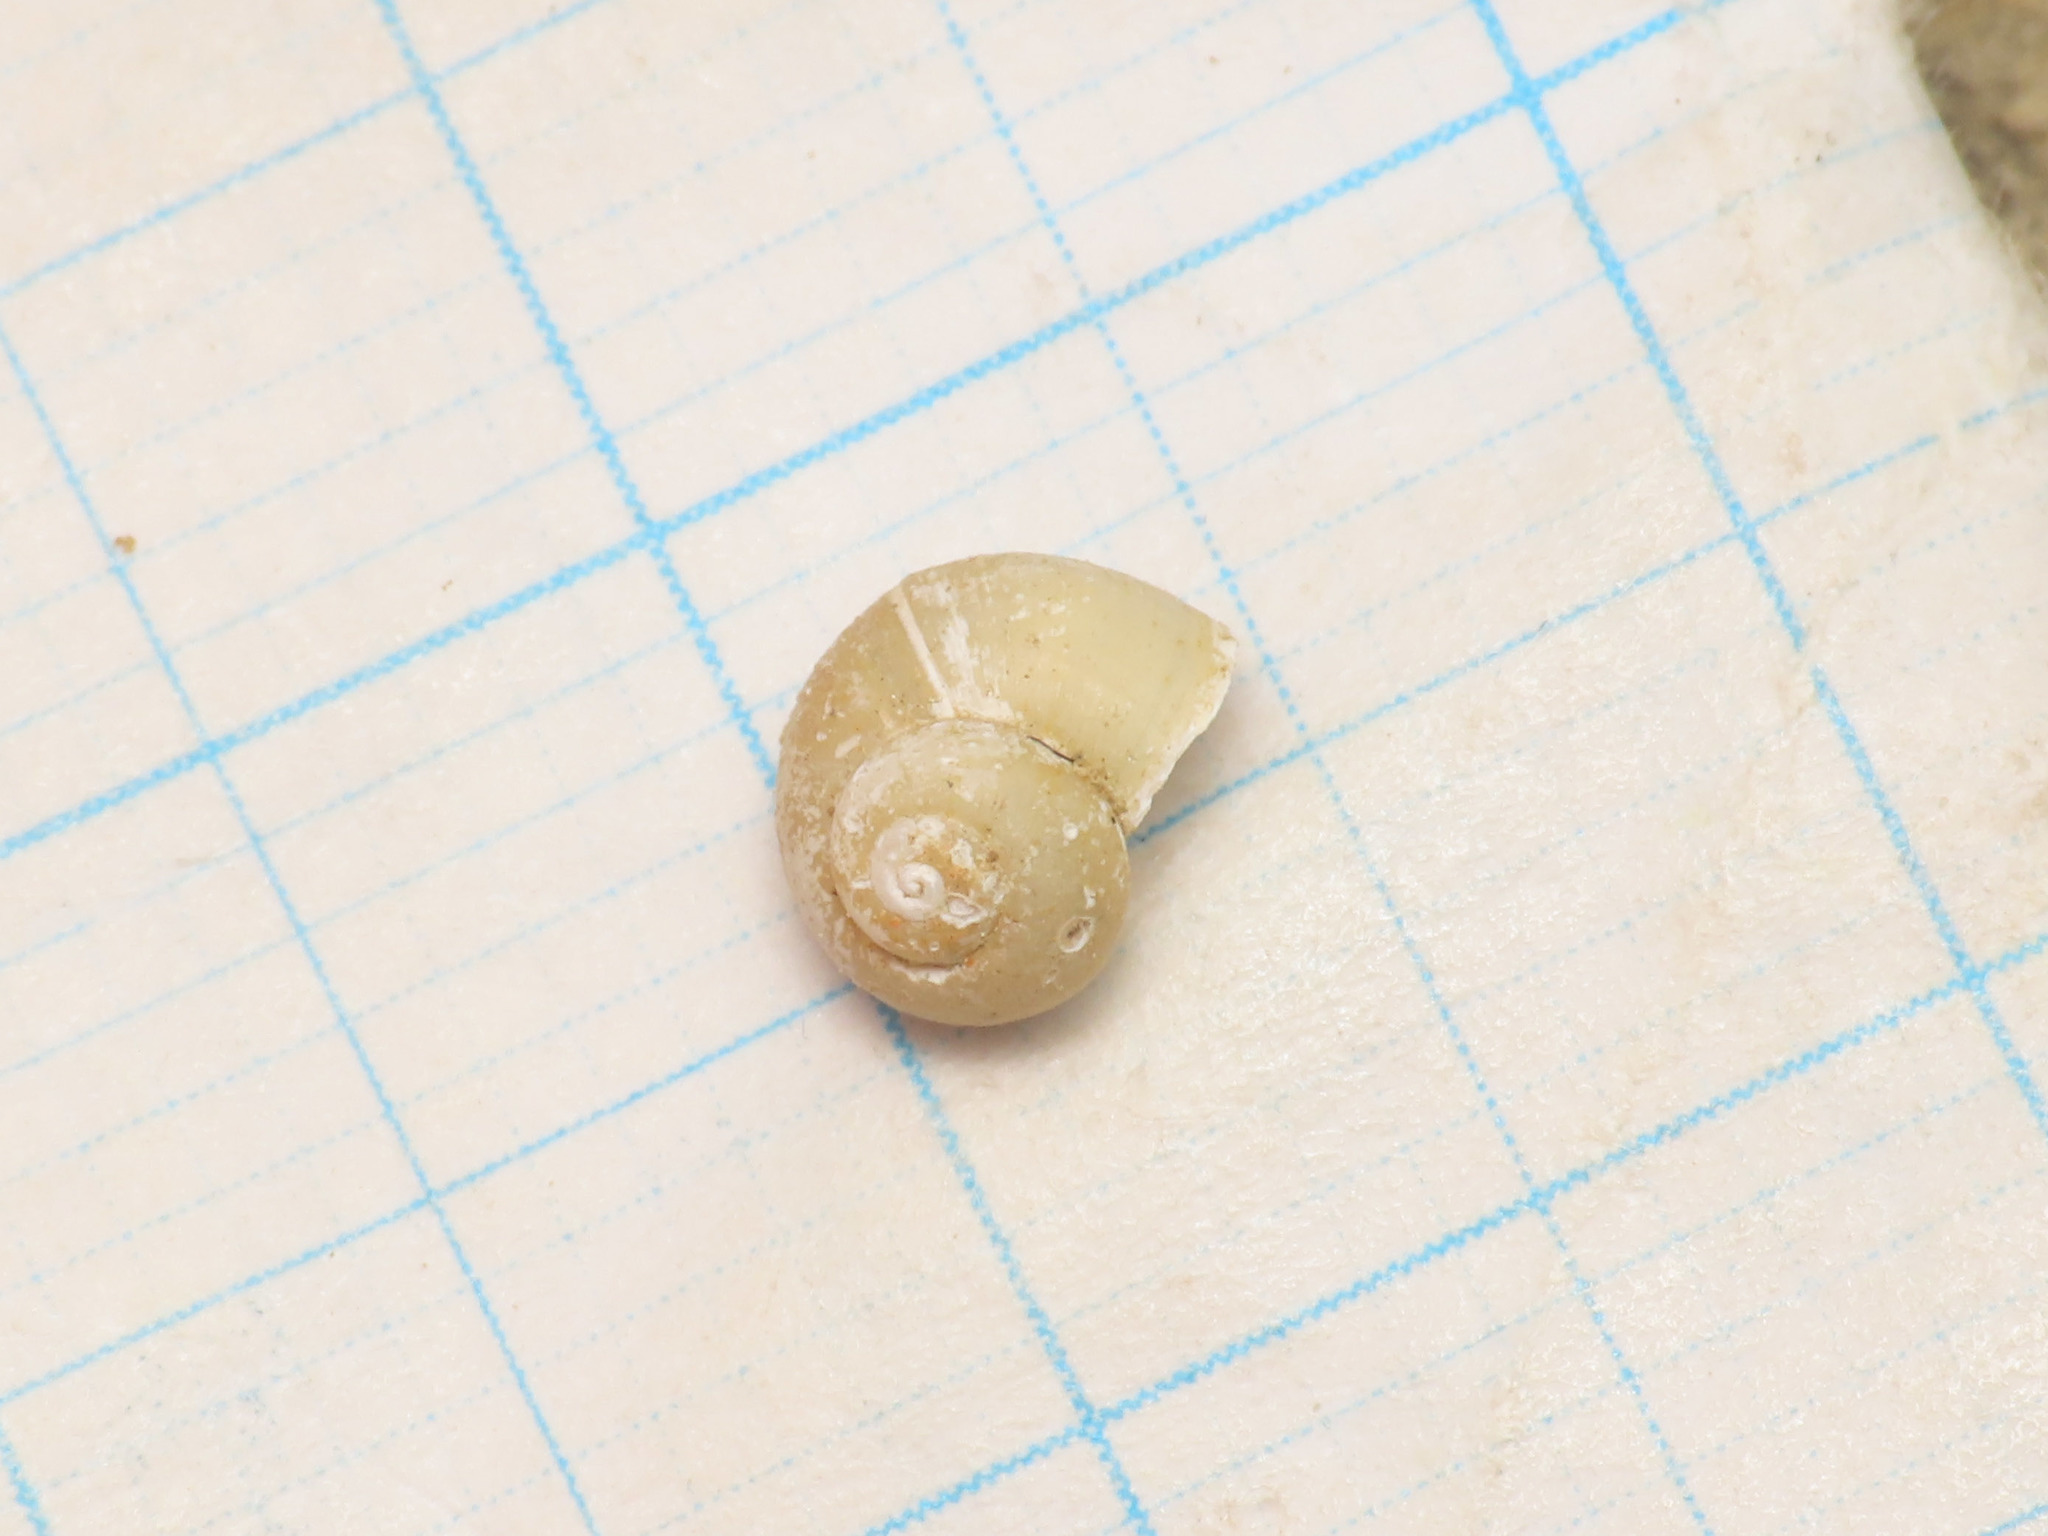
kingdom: Animalia
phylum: Mollusca
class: Gastropoda
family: Valvatidae
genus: Valvata
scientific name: Valvata piscinalis
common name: European valve snail
